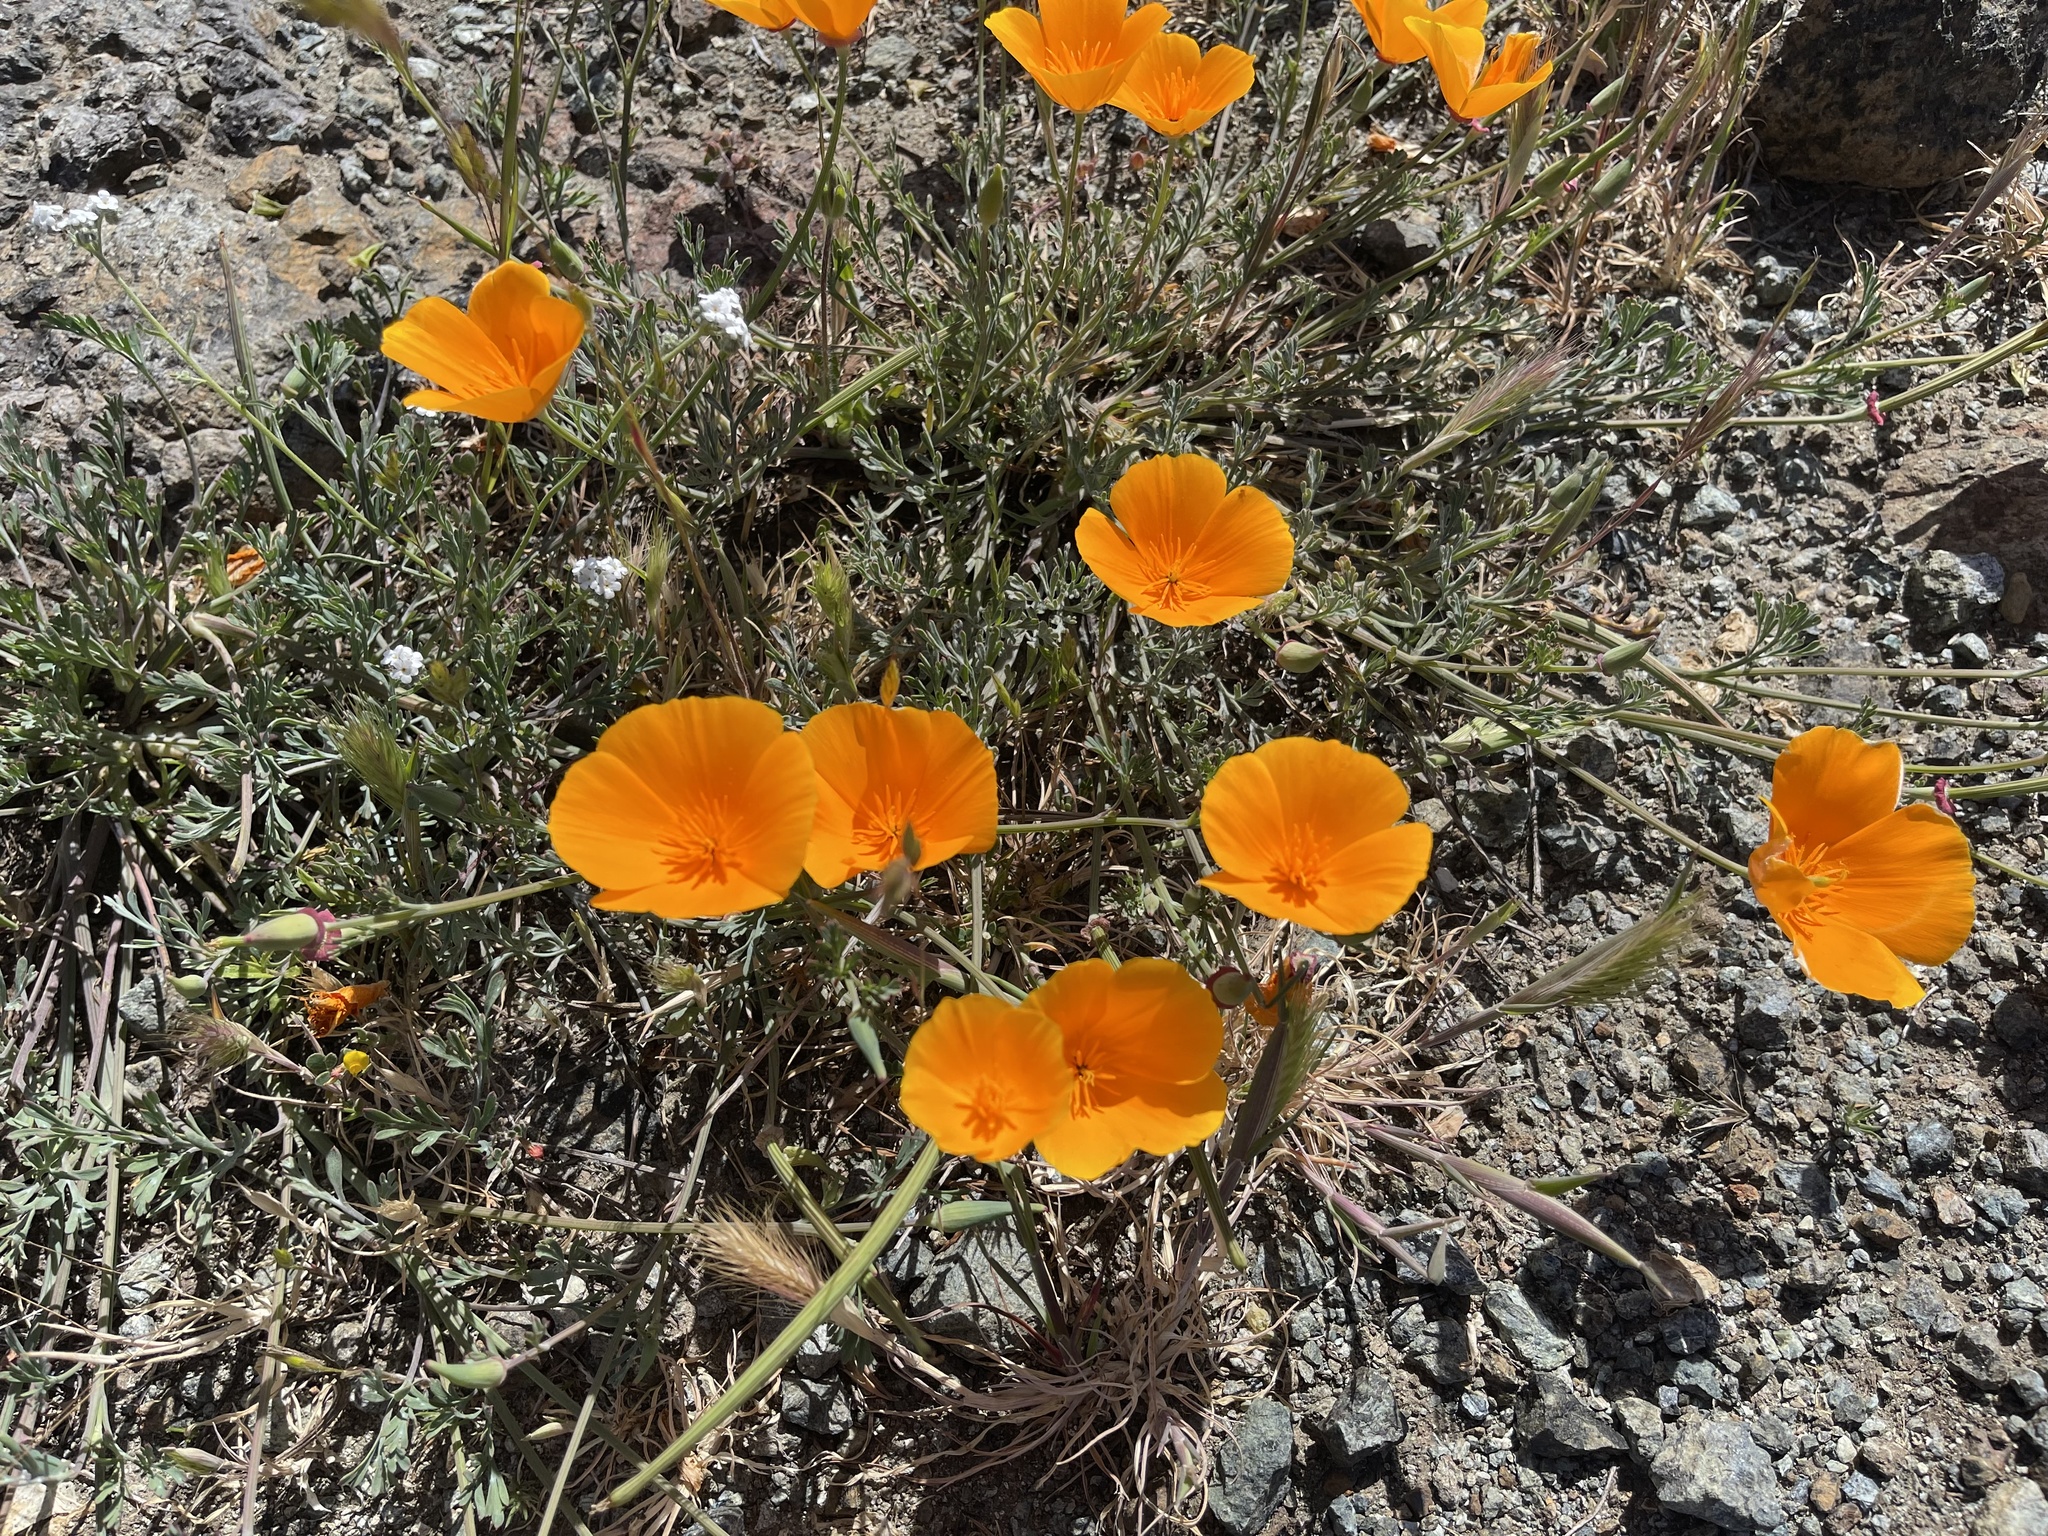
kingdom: Plantae
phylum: Tracheophyta
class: Magnoliopsida
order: Ranunculales
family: Papaveraceae
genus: Eschscholzia
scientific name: Eschscholzia californica
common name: California poppy
